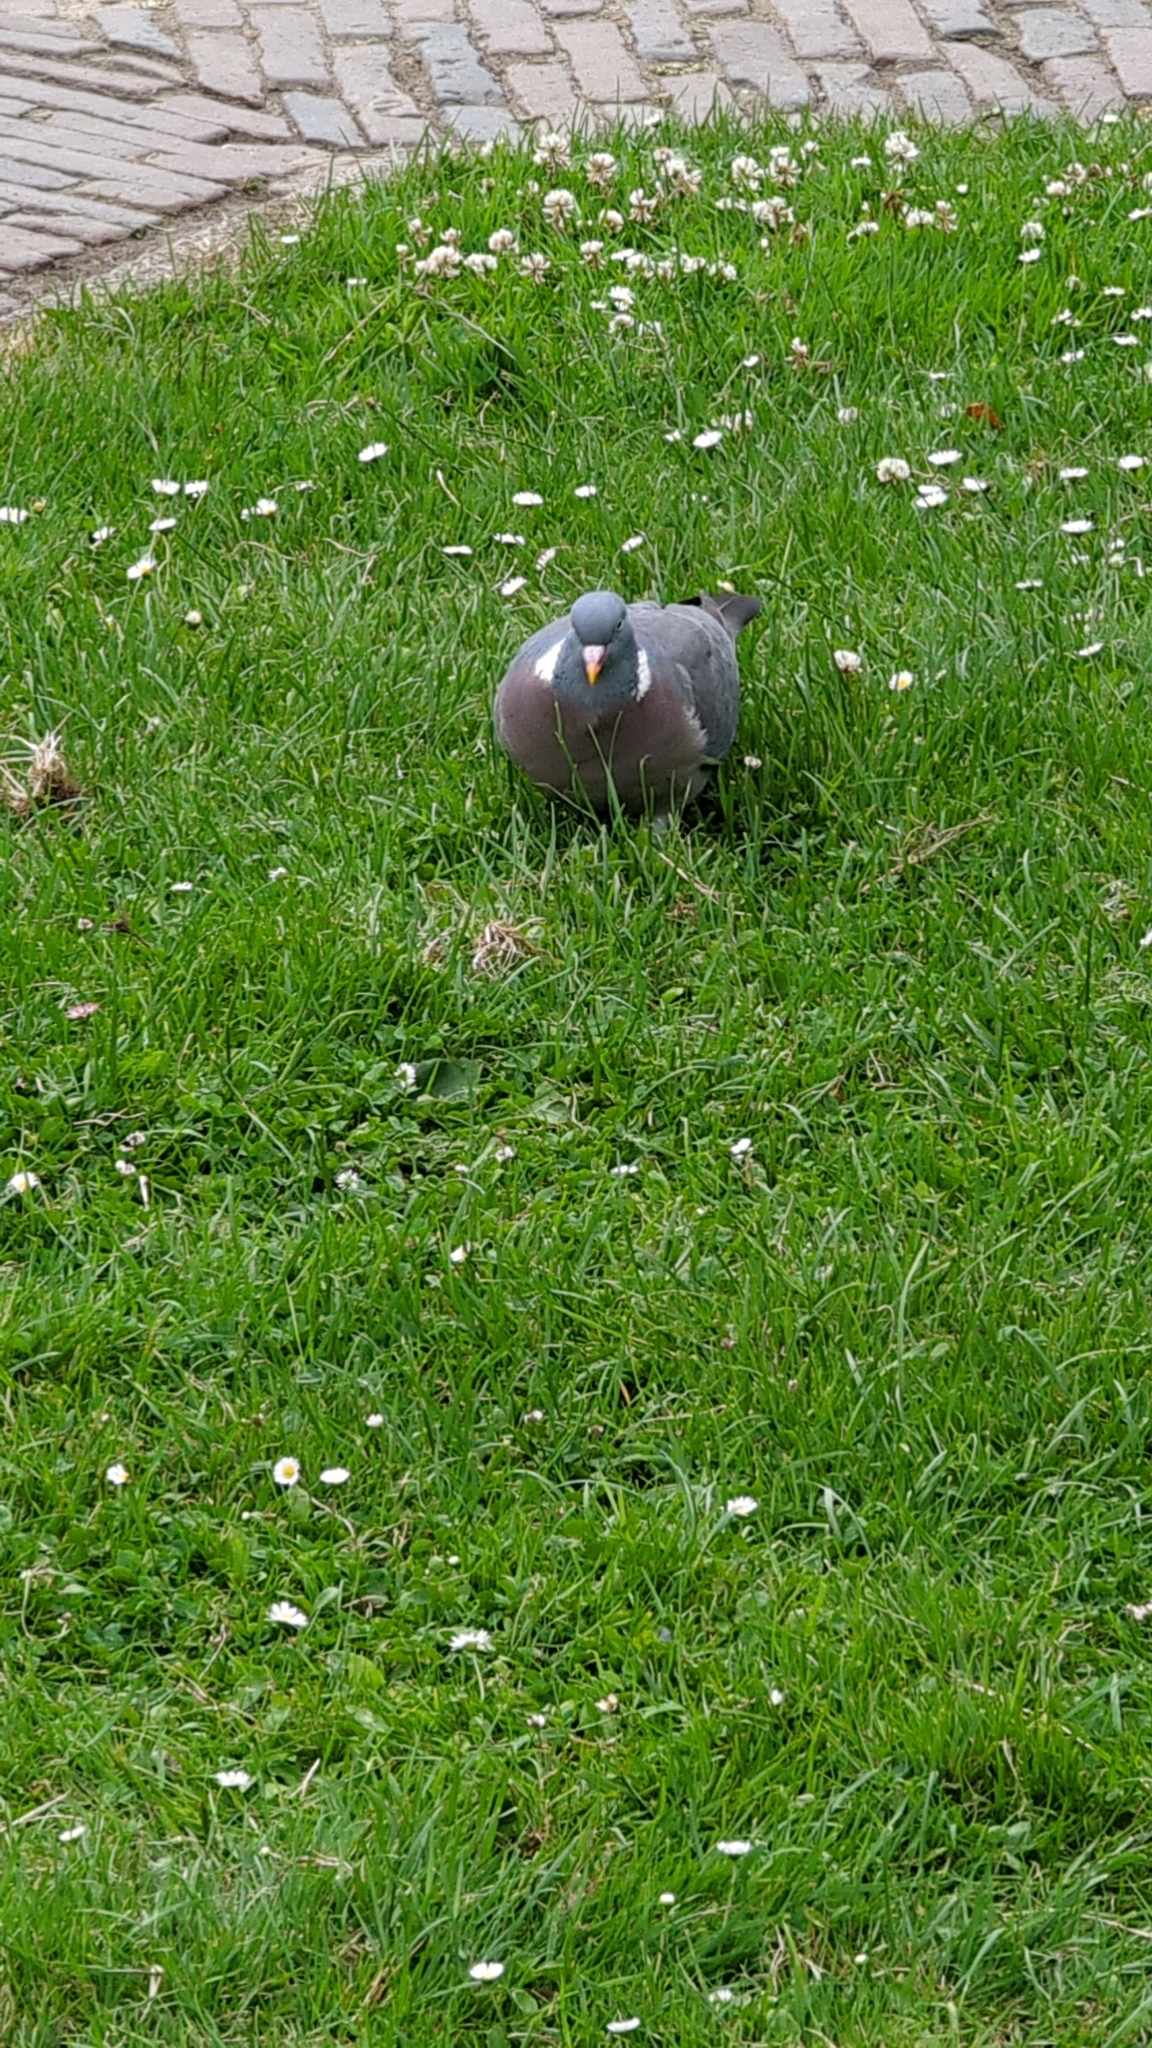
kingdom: Animalia
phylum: Chordata
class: Aves
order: Columbiformes
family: Columbidae
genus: Columba
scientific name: Columba palumbus
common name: Common wood pigeon
